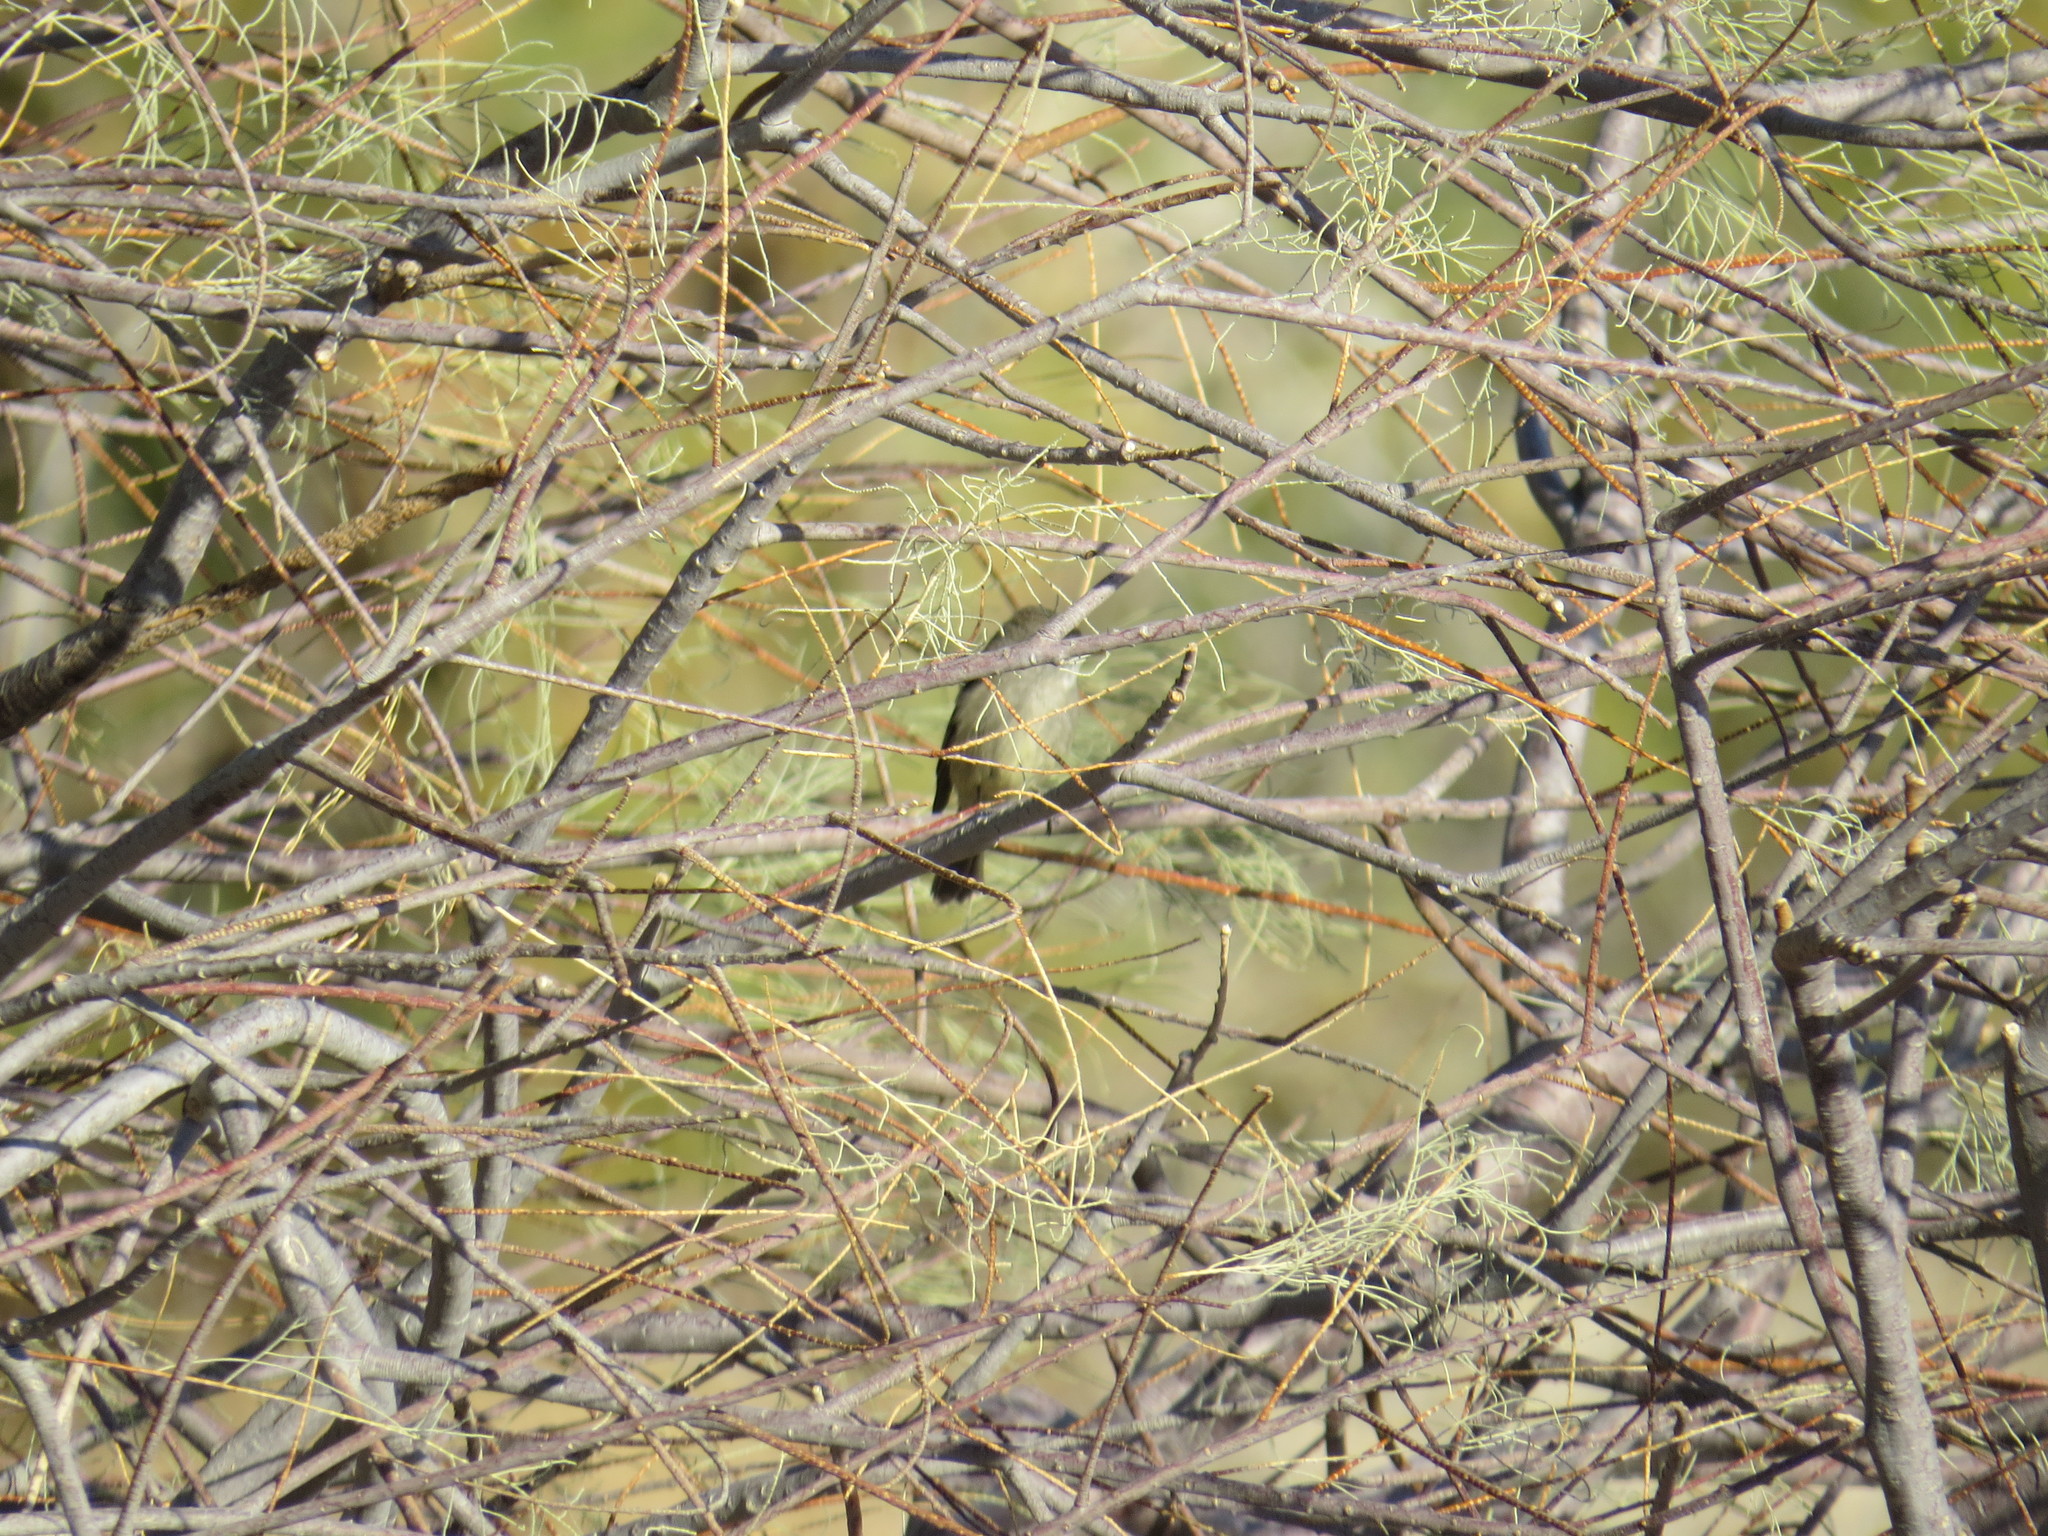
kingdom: Animalia
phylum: Chordata
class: Aves
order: Passeriformes
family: Tyrannidae
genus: Empidonax
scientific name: Empidonax
